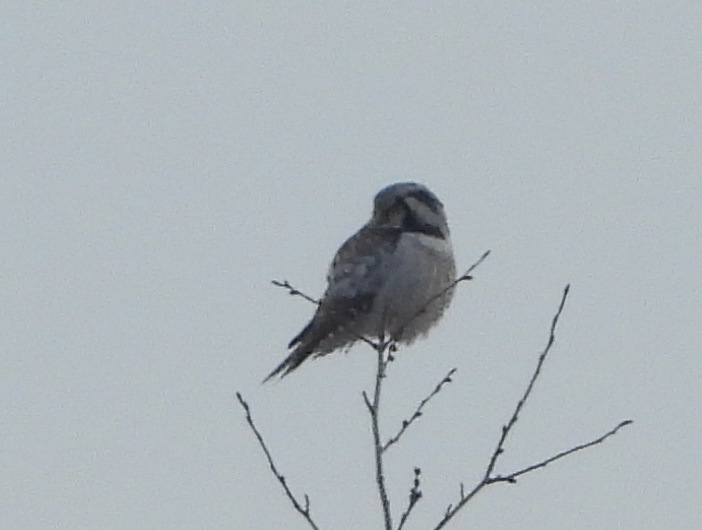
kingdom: Animalia
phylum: Chordata
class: Aves
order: Strigiformes
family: Strigidae
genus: Surnia
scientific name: Surnia ulula
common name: Northern hawk-owl
